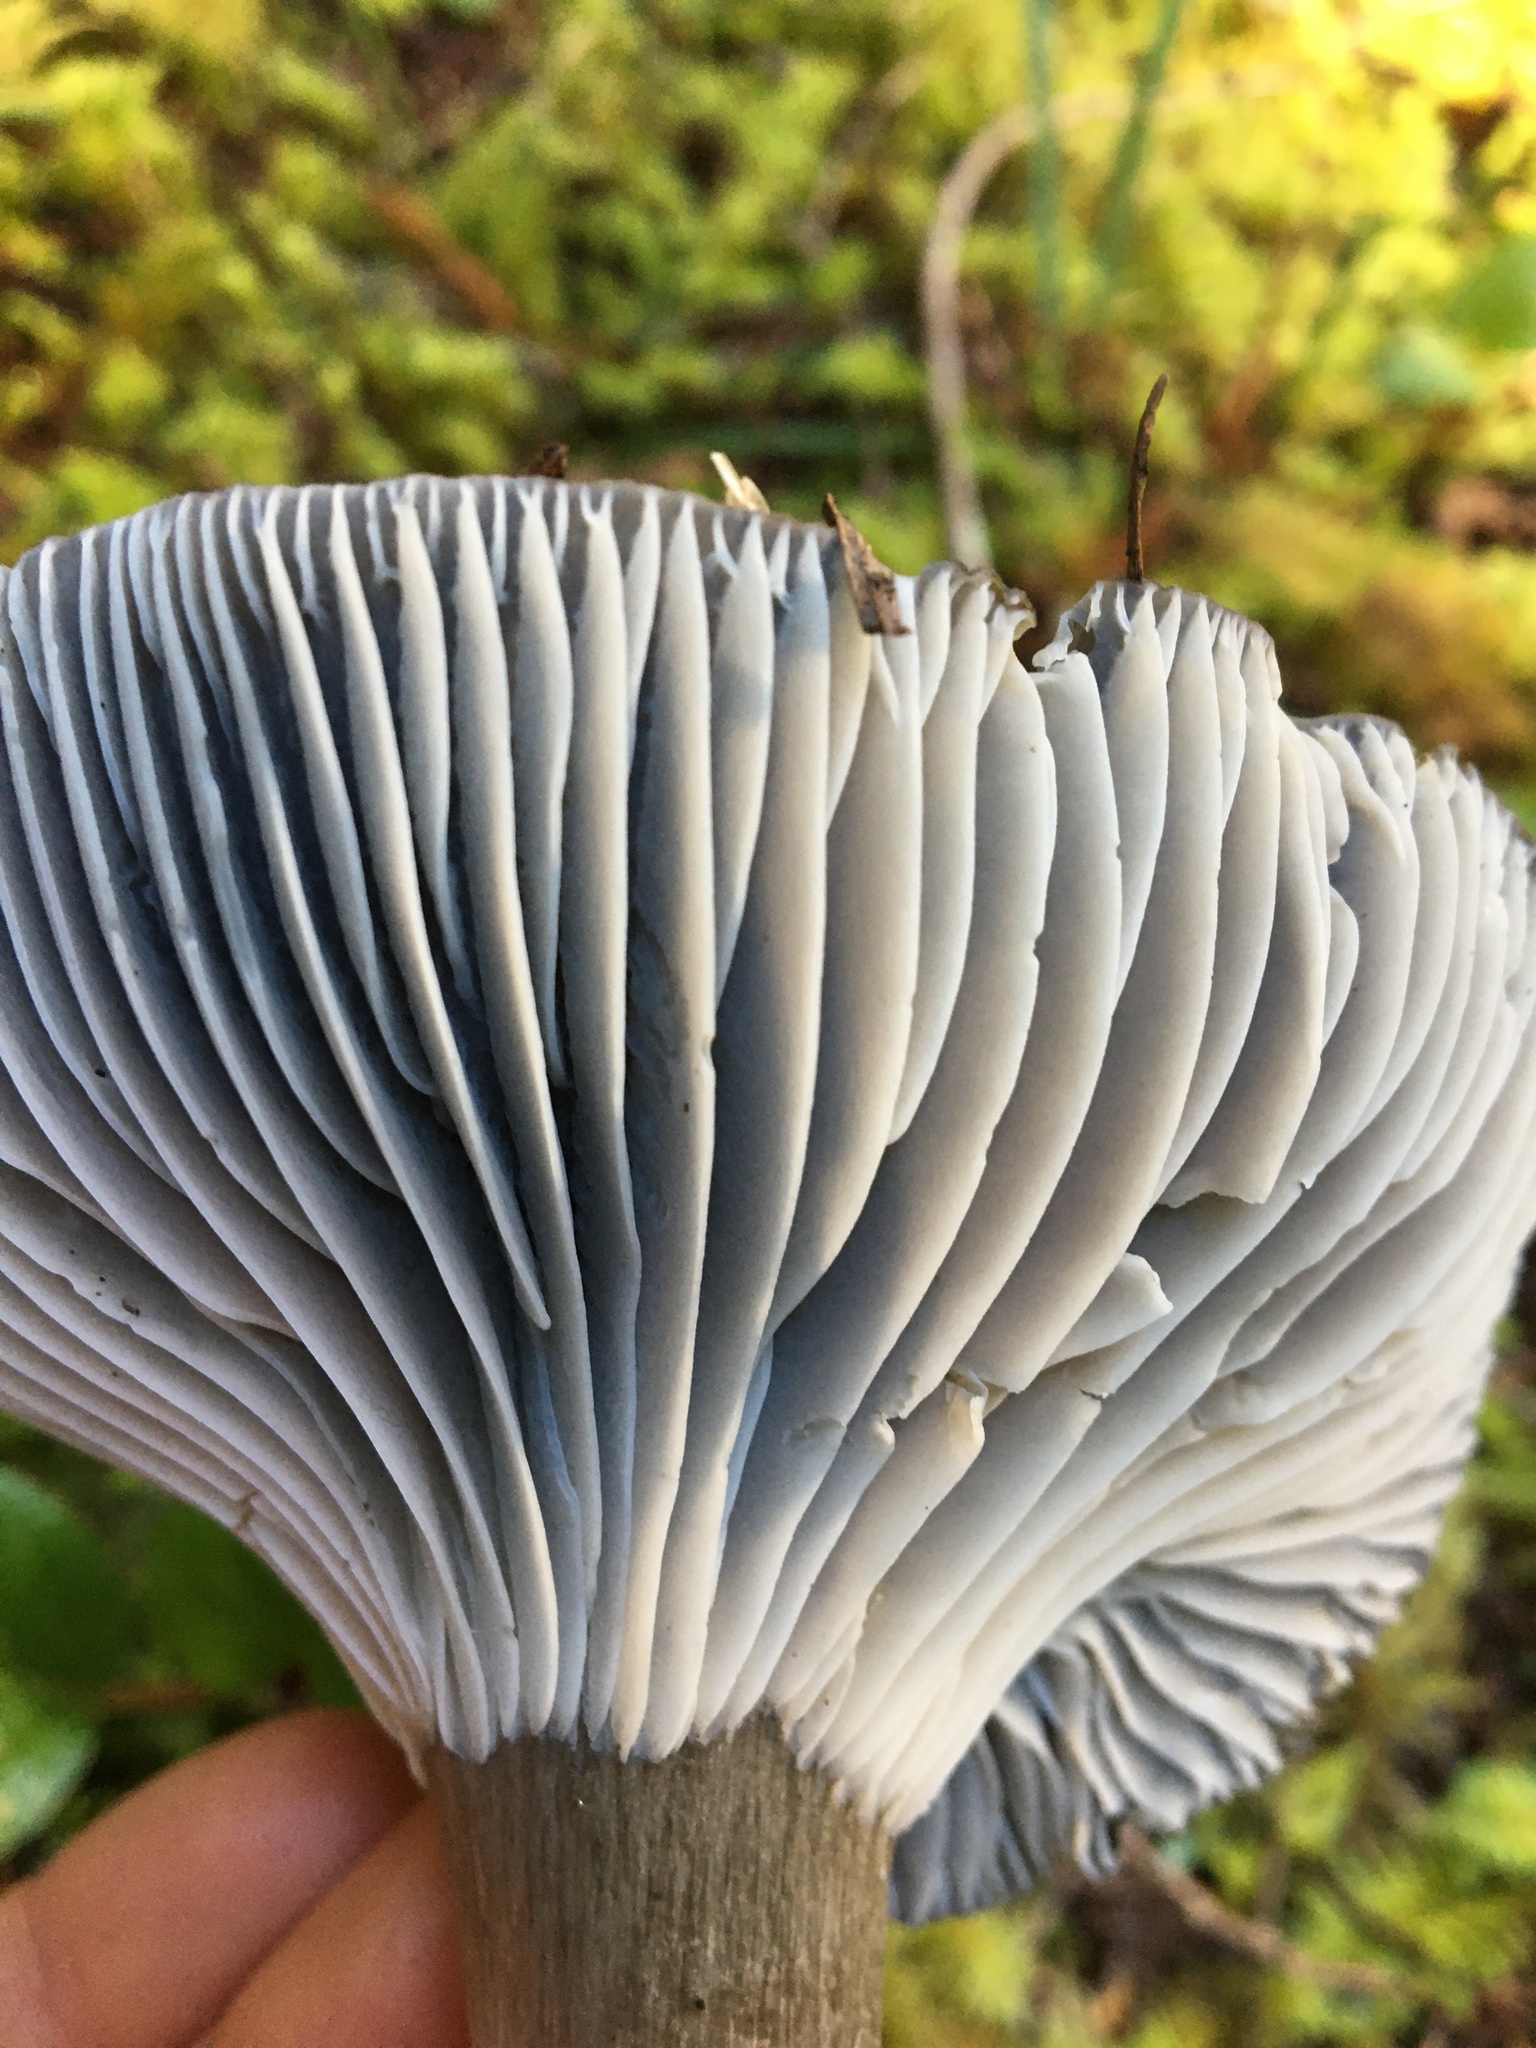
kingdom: Fungi
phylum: Basidiomycota
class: Agaricomycetes
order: Agaricales
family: Hygrophoraceae
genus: Hygrophorus
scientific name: Hygrophorus camarophyllus
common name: Arched woodwax
